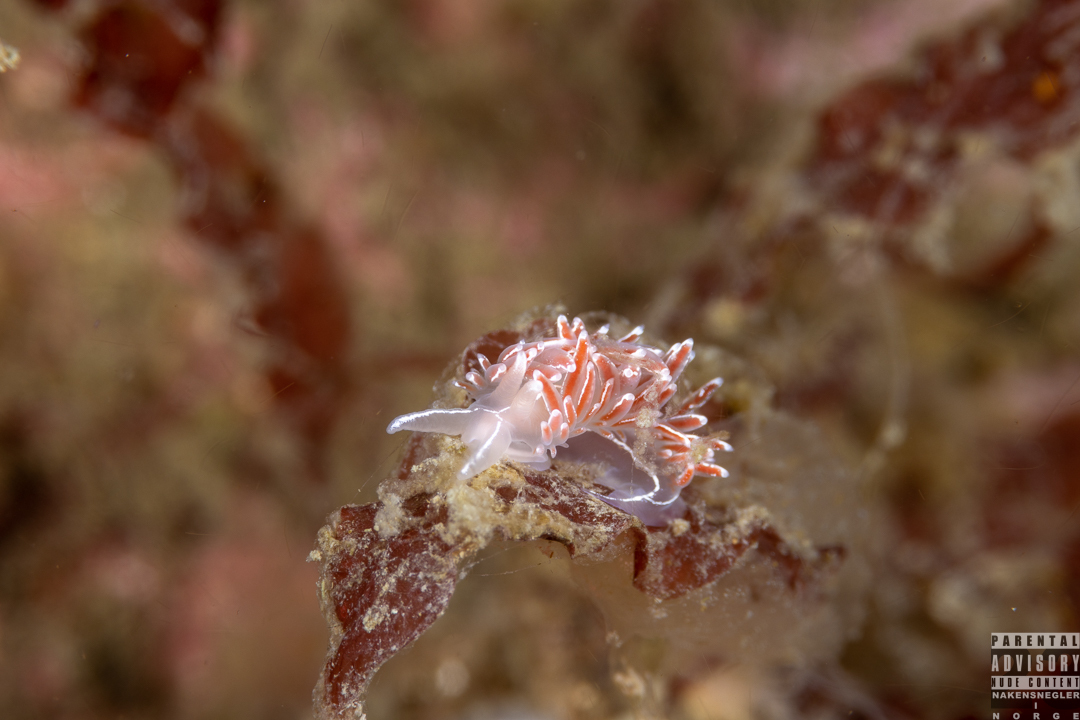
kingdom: Animalia
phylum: Mollusca
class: Gastropoda
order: Nudibranchia
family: Coryphellidae
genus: Coryphella
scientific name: Coryphella lineata
